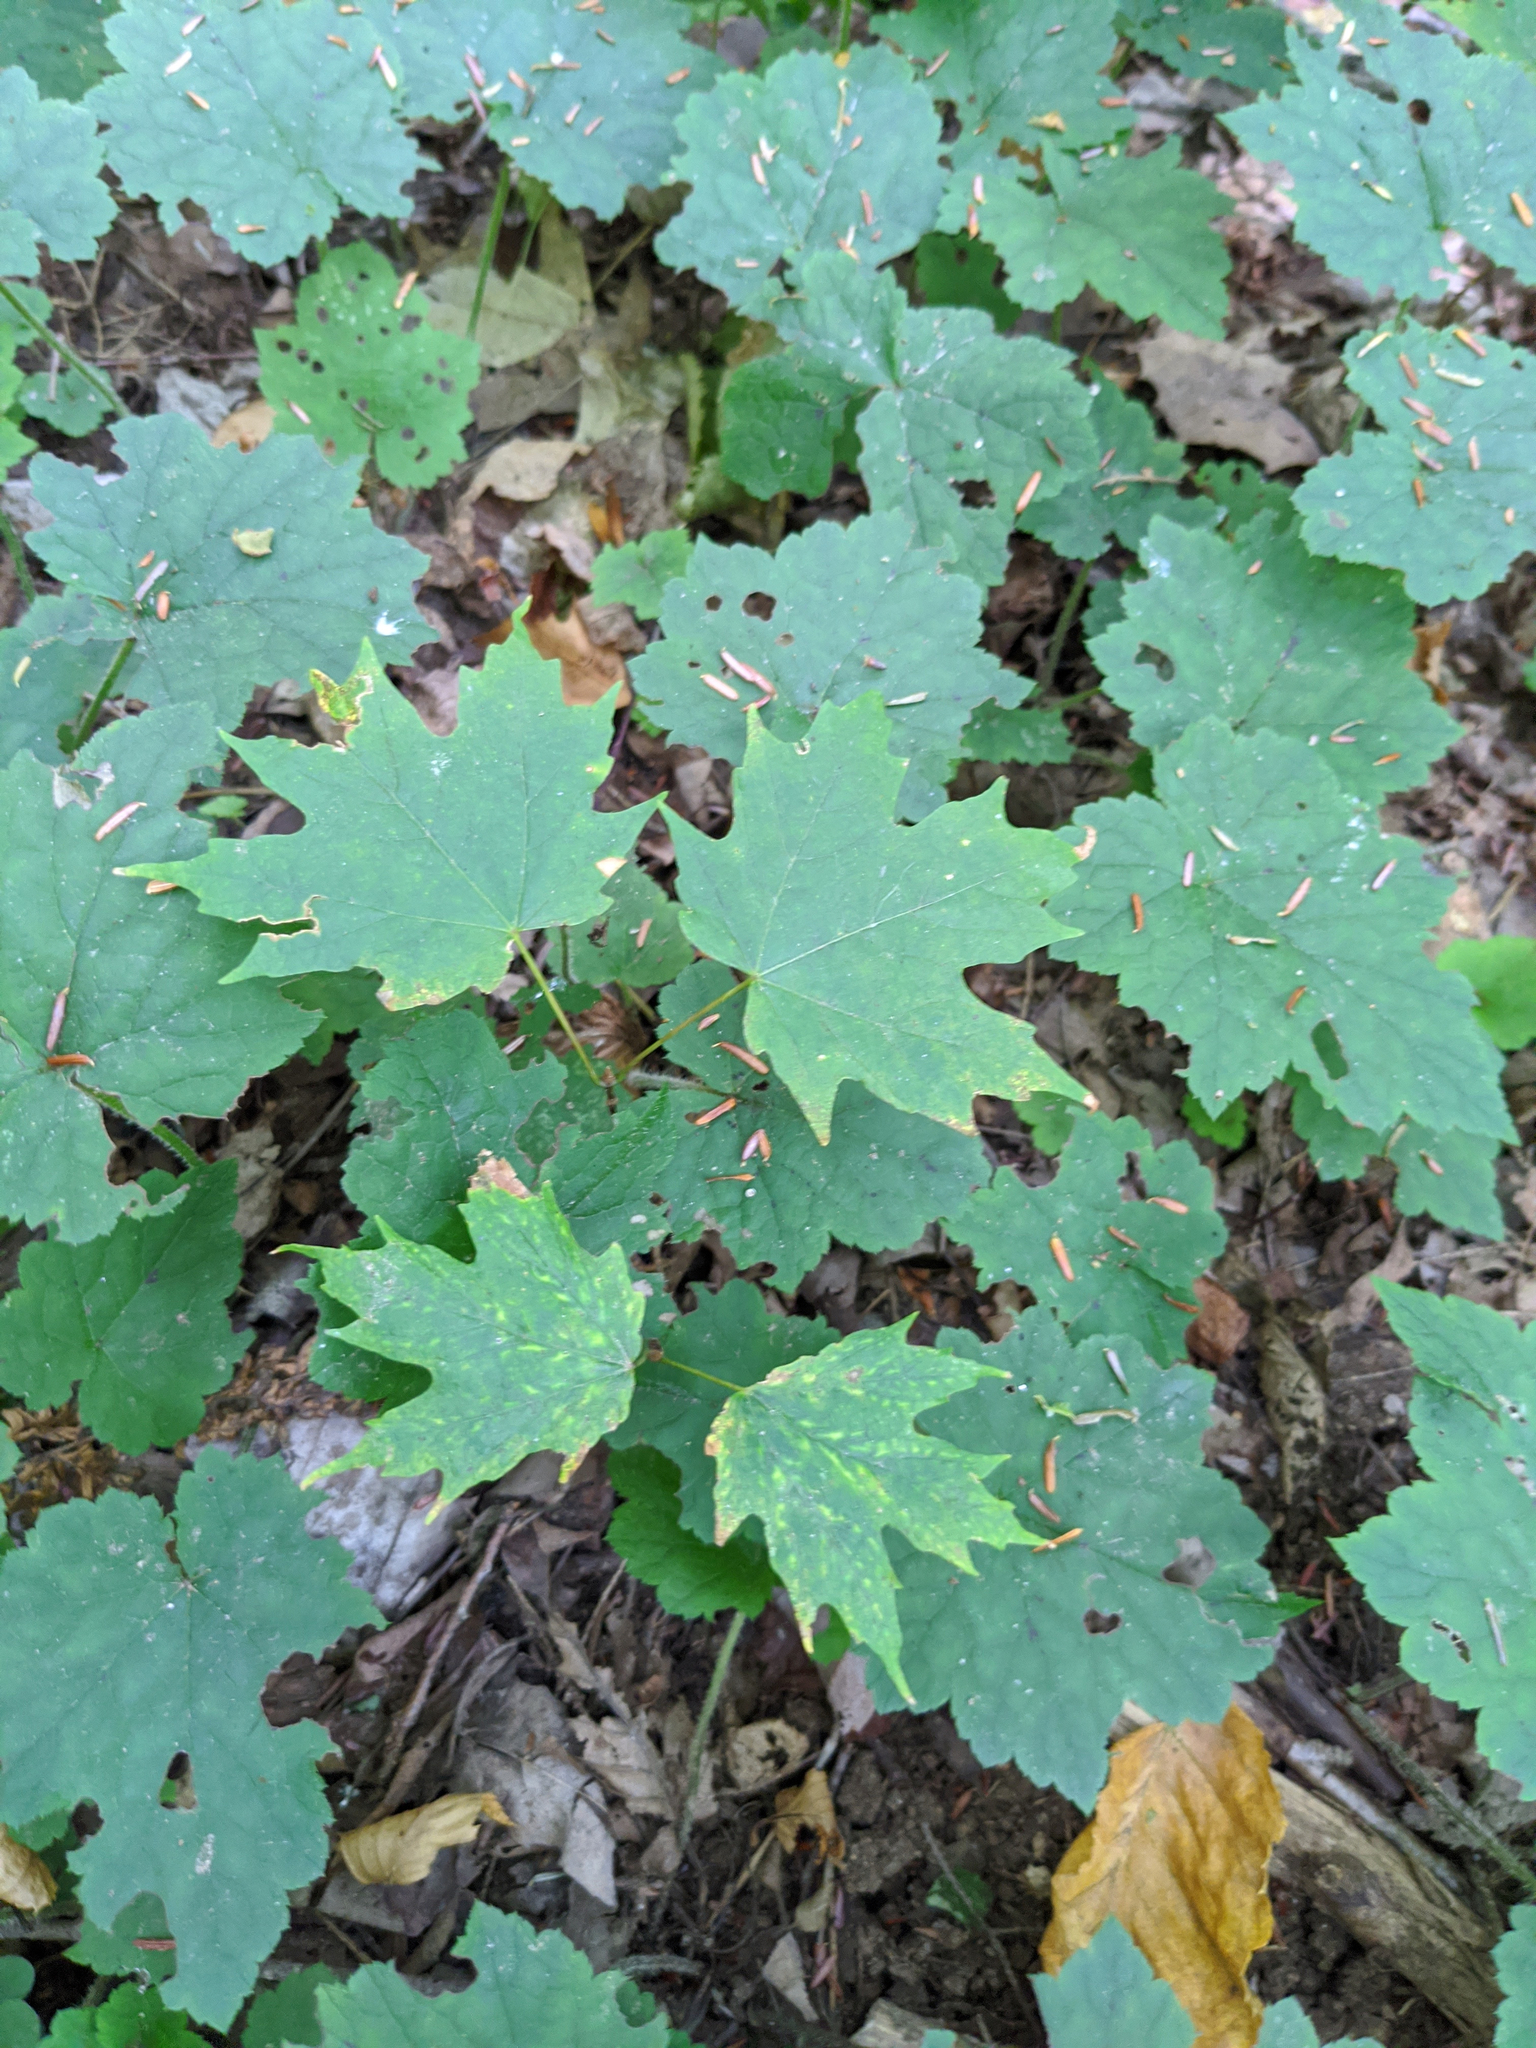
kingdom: Plantae
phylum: Tracheophyta
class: Magnoliopsida
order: Sapindales
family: Sapindaceae
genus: Acer
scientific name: Acer saccharum
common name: Sugar maple
